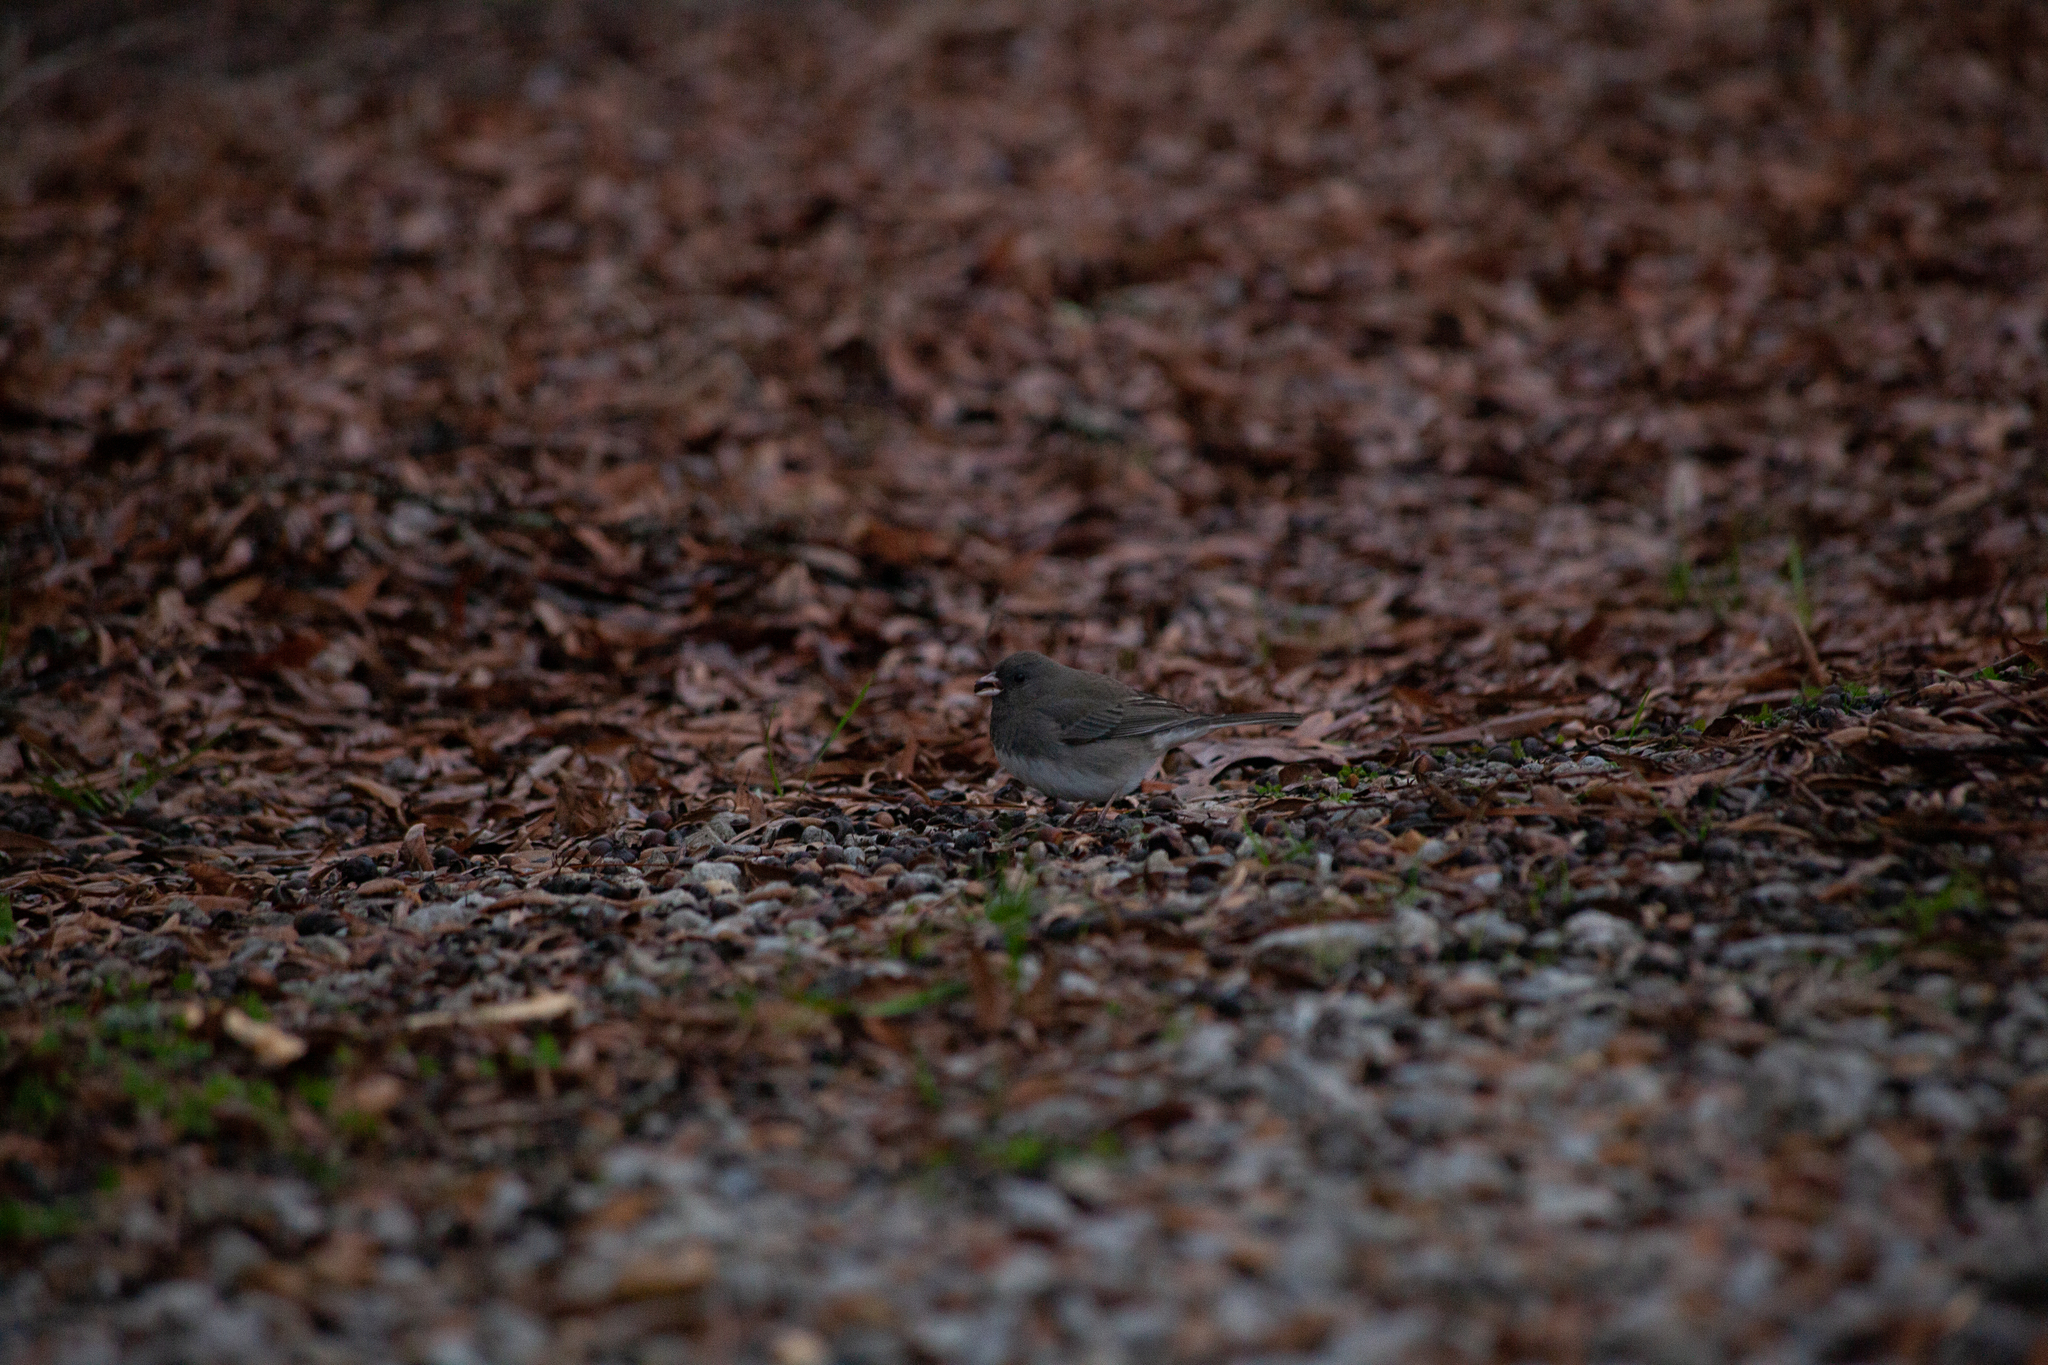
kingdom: Animalia
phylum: Chordata
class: Aves
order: Passeriformes
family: Passerellidae
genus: Junco
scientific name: Junco hyemalis
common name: Dark-eyed junco
